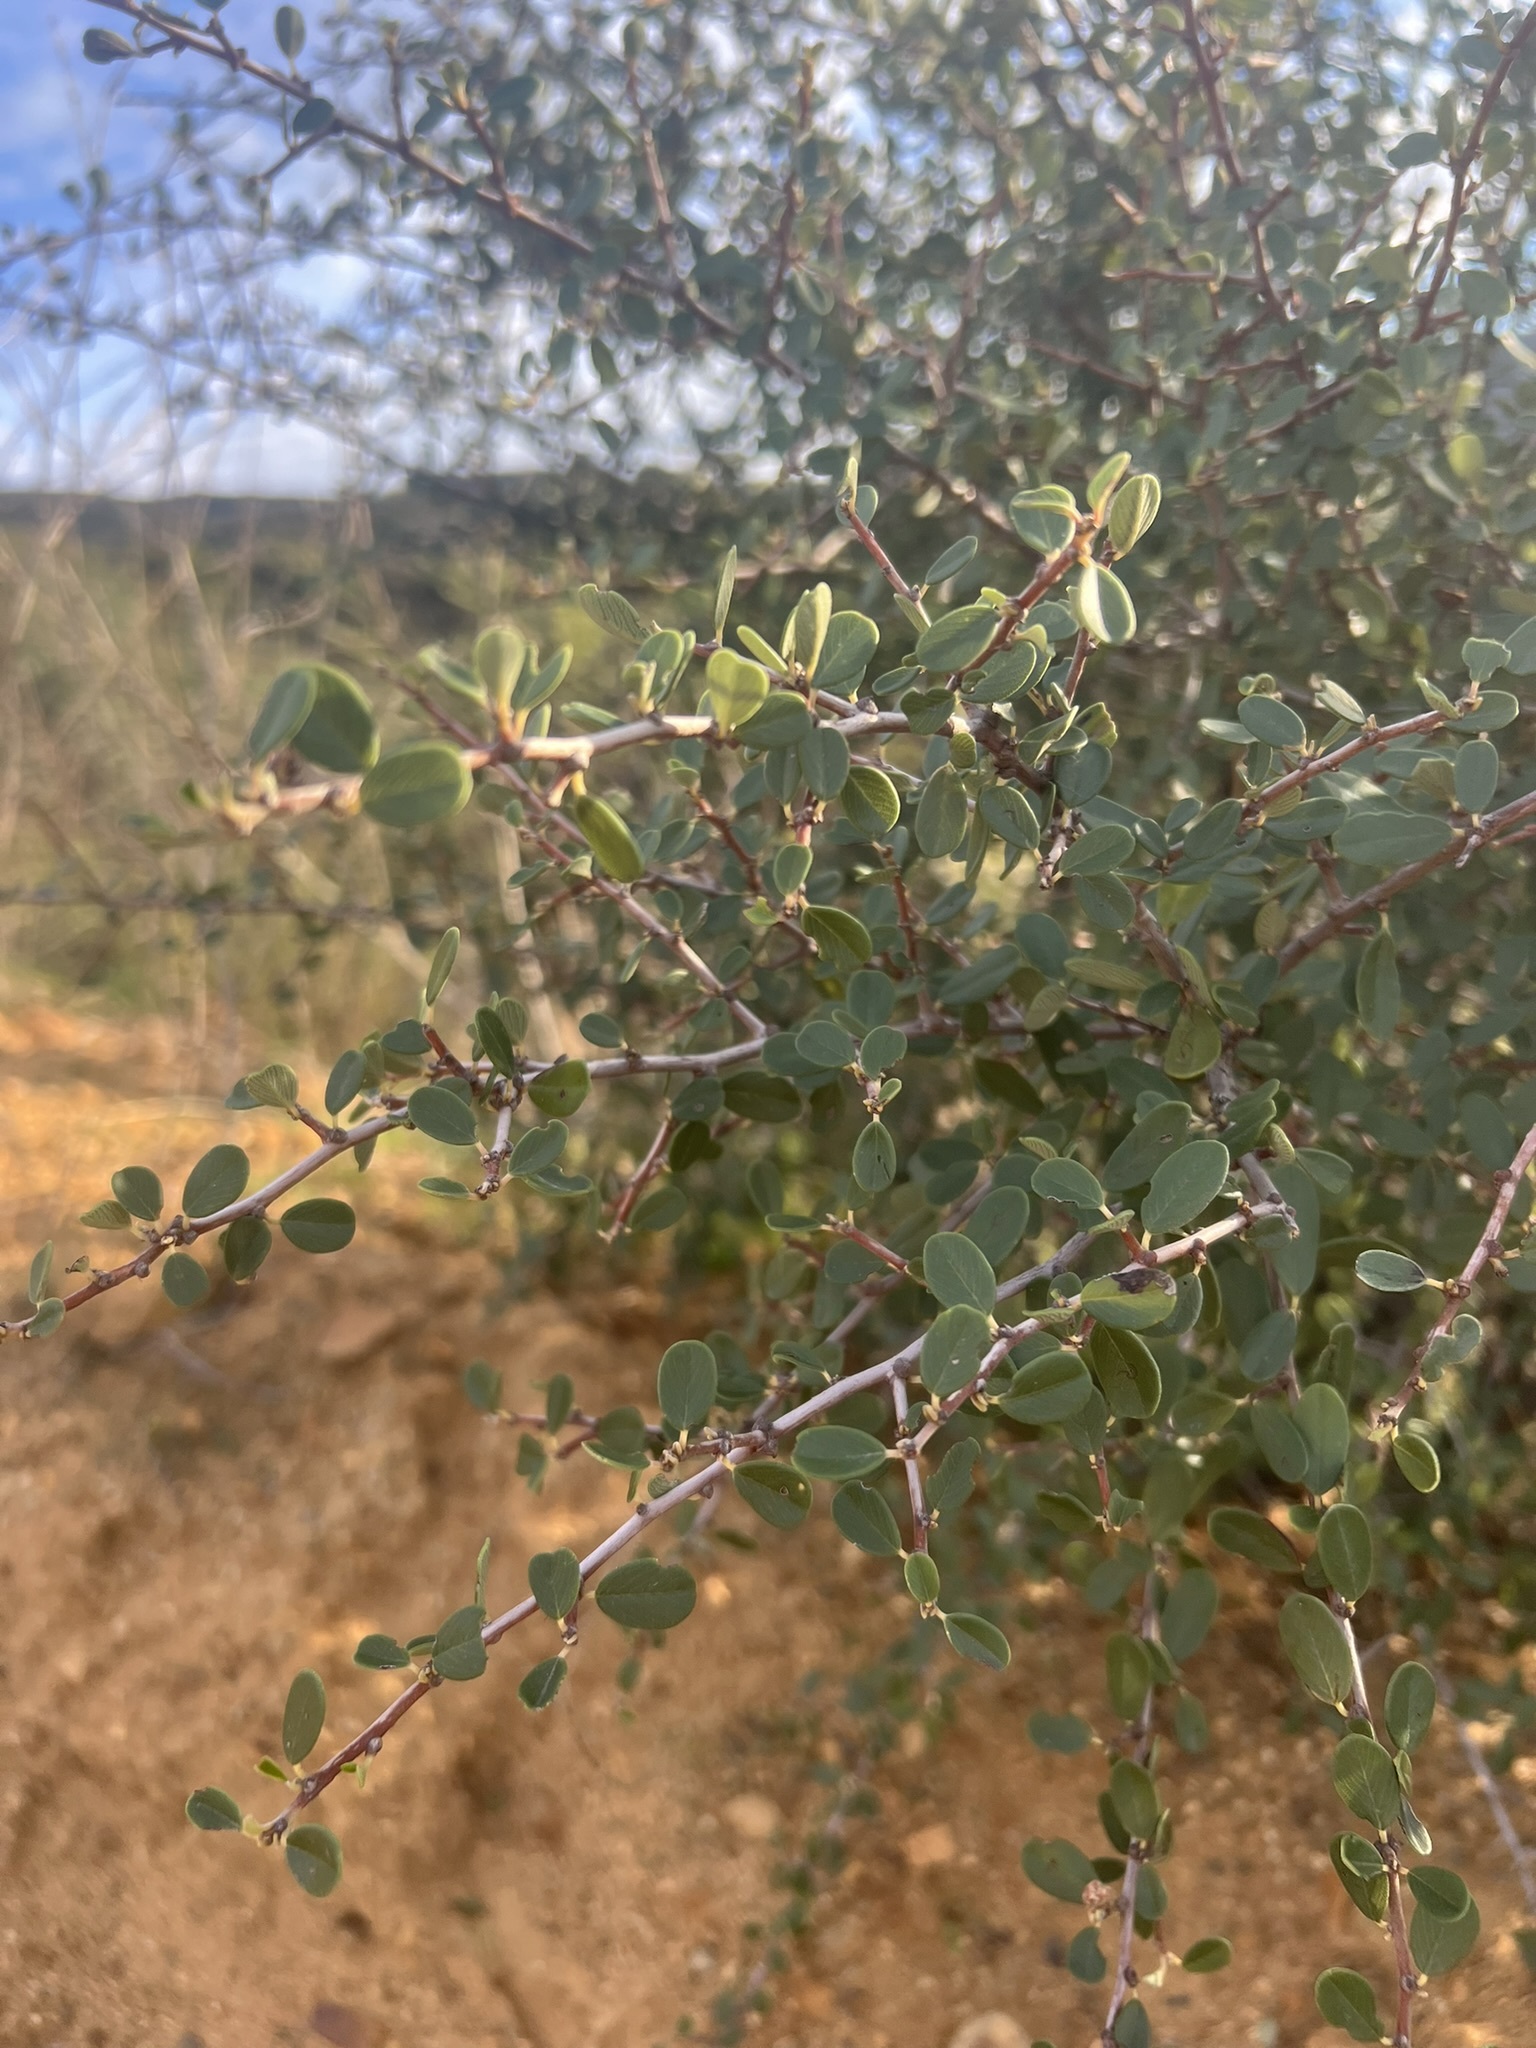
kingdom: Plantae
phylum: Tracheophyta
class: Magnoliopsida
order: Rosales
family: Rhamnaceae
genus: Ceanothus
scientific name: Ceanothus megacarpus
